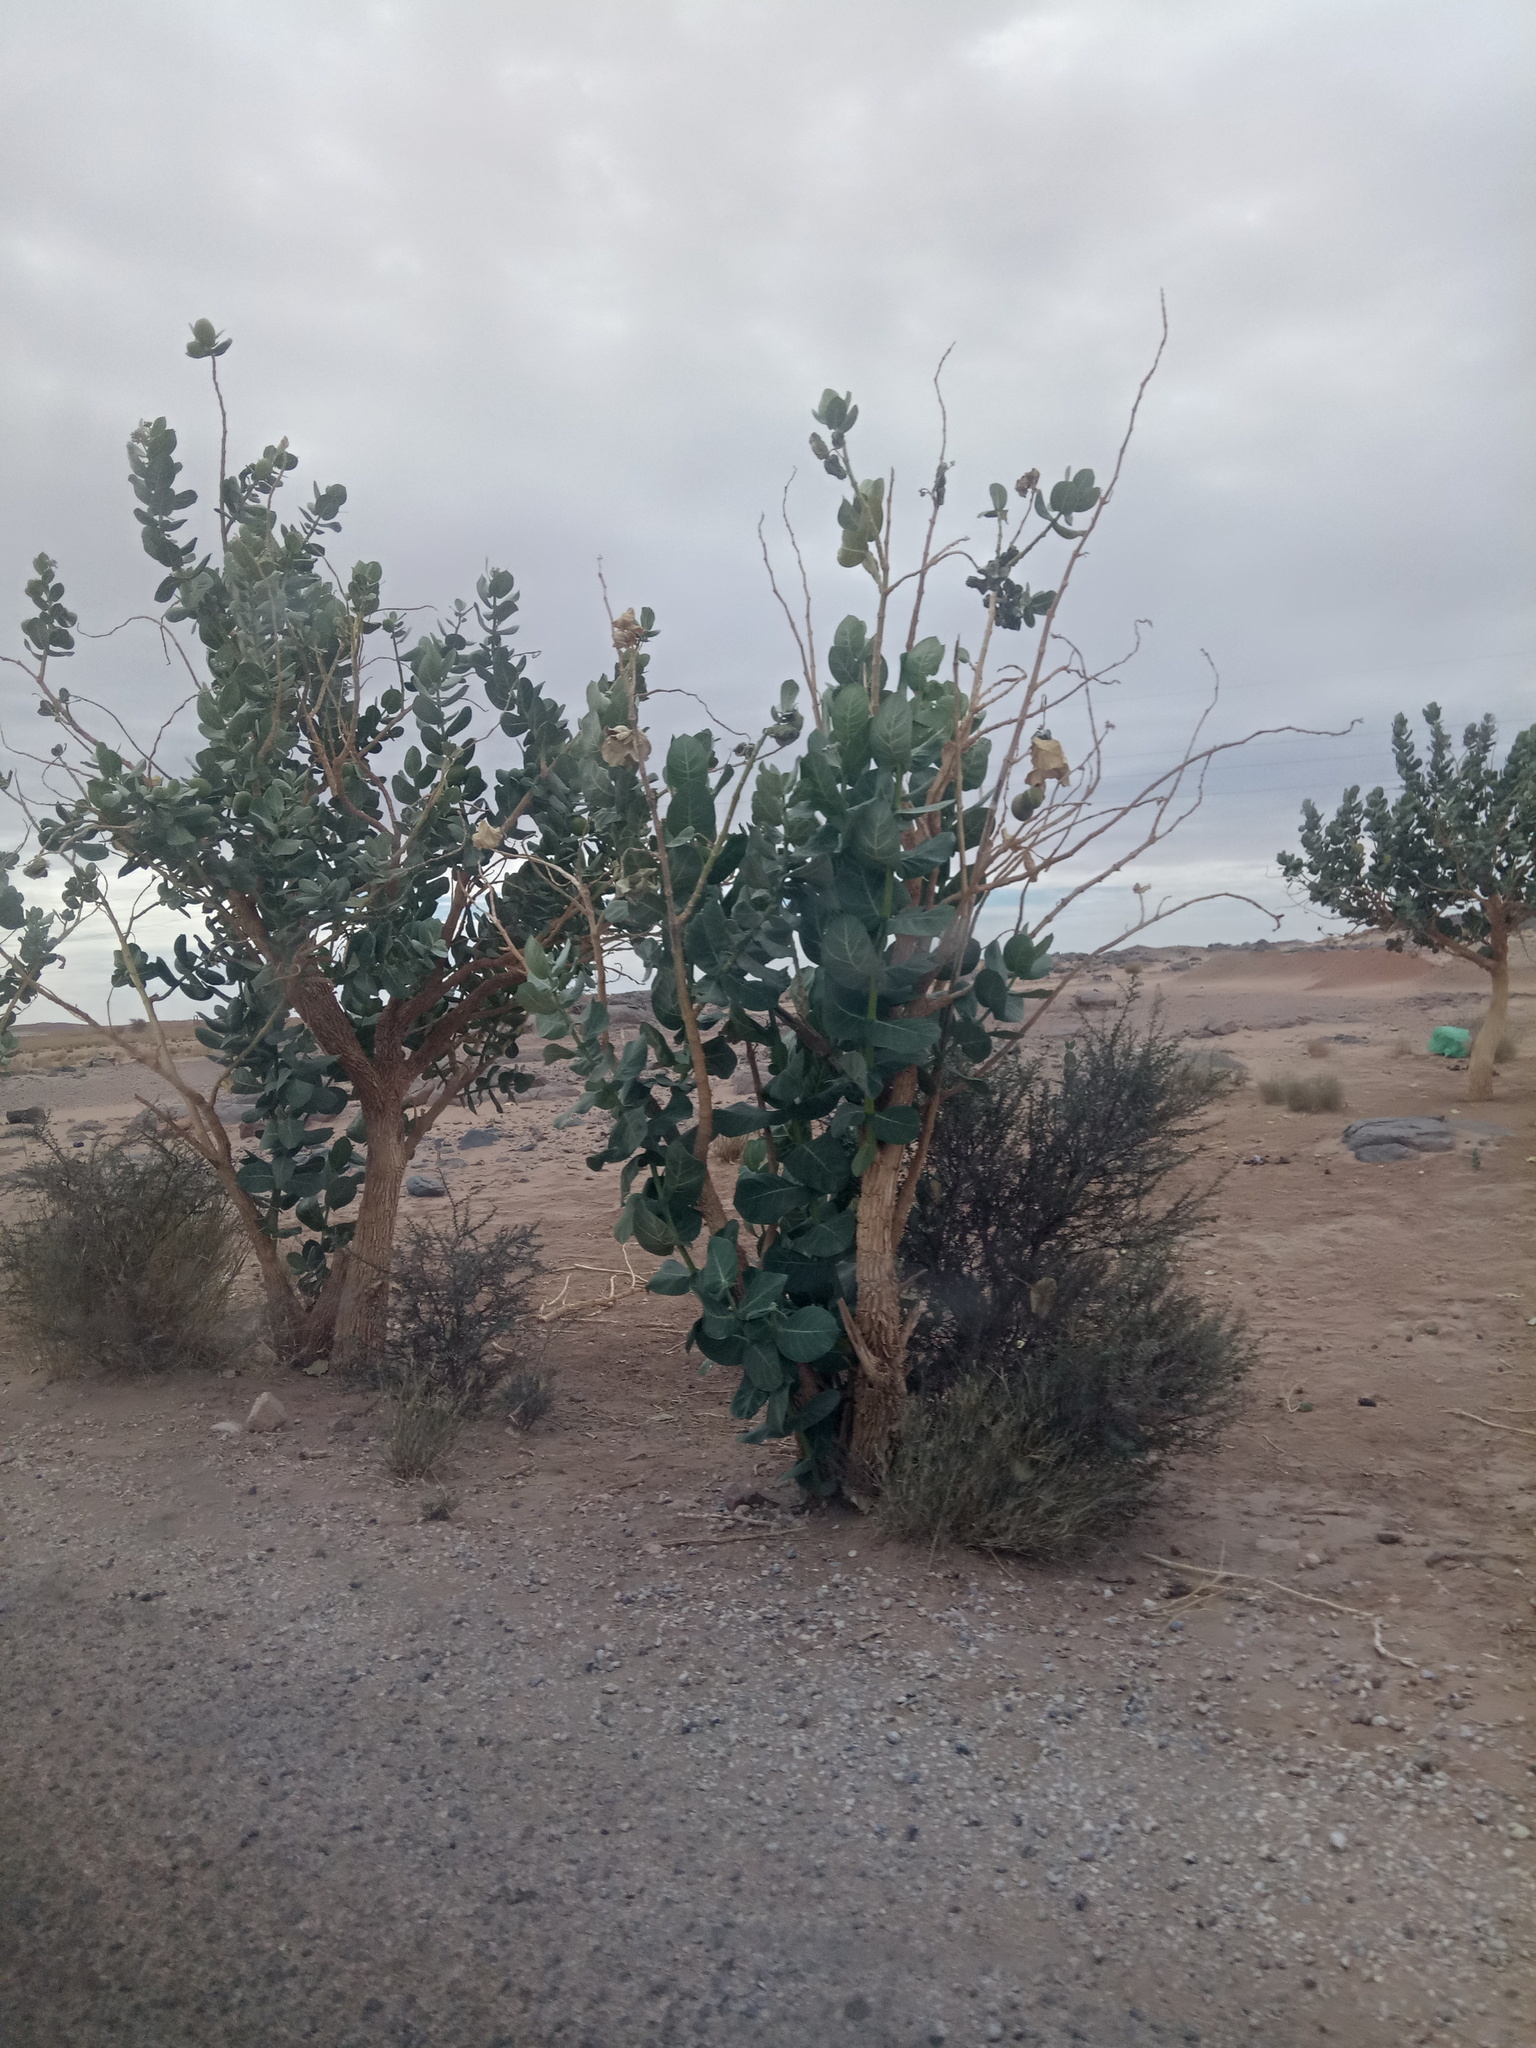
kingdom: Plantae
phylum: Tracheophyta
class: Magnoliopsida
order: Gentianales
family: Apocynaceae
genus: Calotropis
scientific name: Calotropis procera
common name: Roostertree
